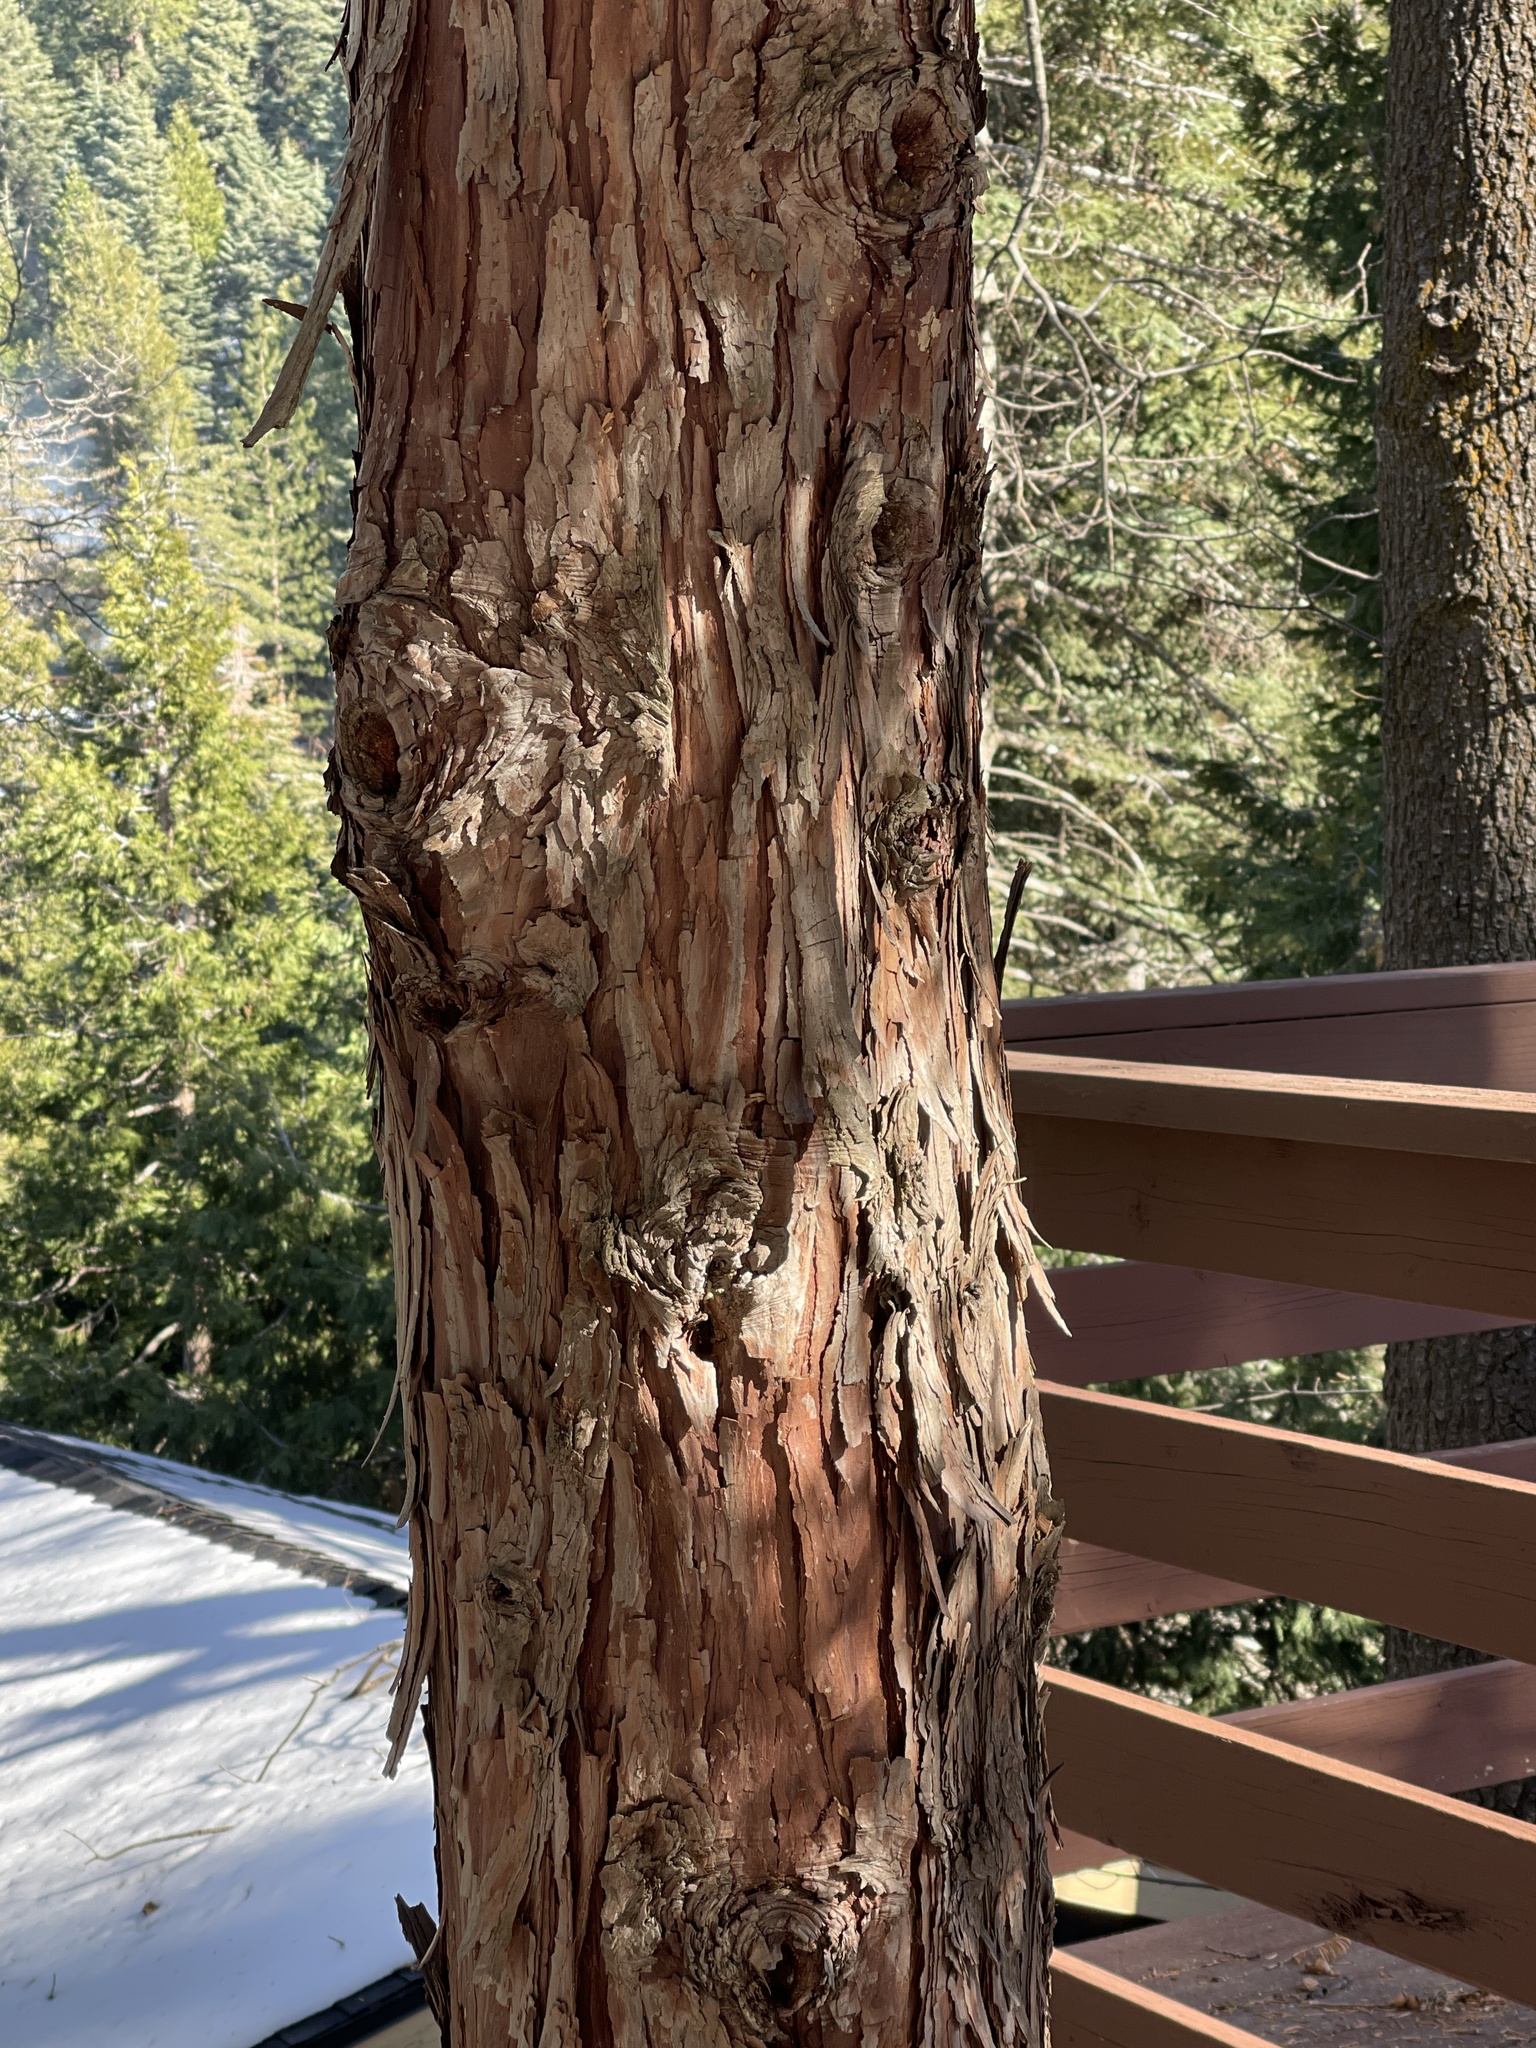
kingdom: Plantae
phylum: Tracheophyta
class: Pinopsida
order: Pinales
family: Cupressaceae
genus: Calocedrus
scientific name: Calocedrus decurrens
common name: Californian incense-cedar
